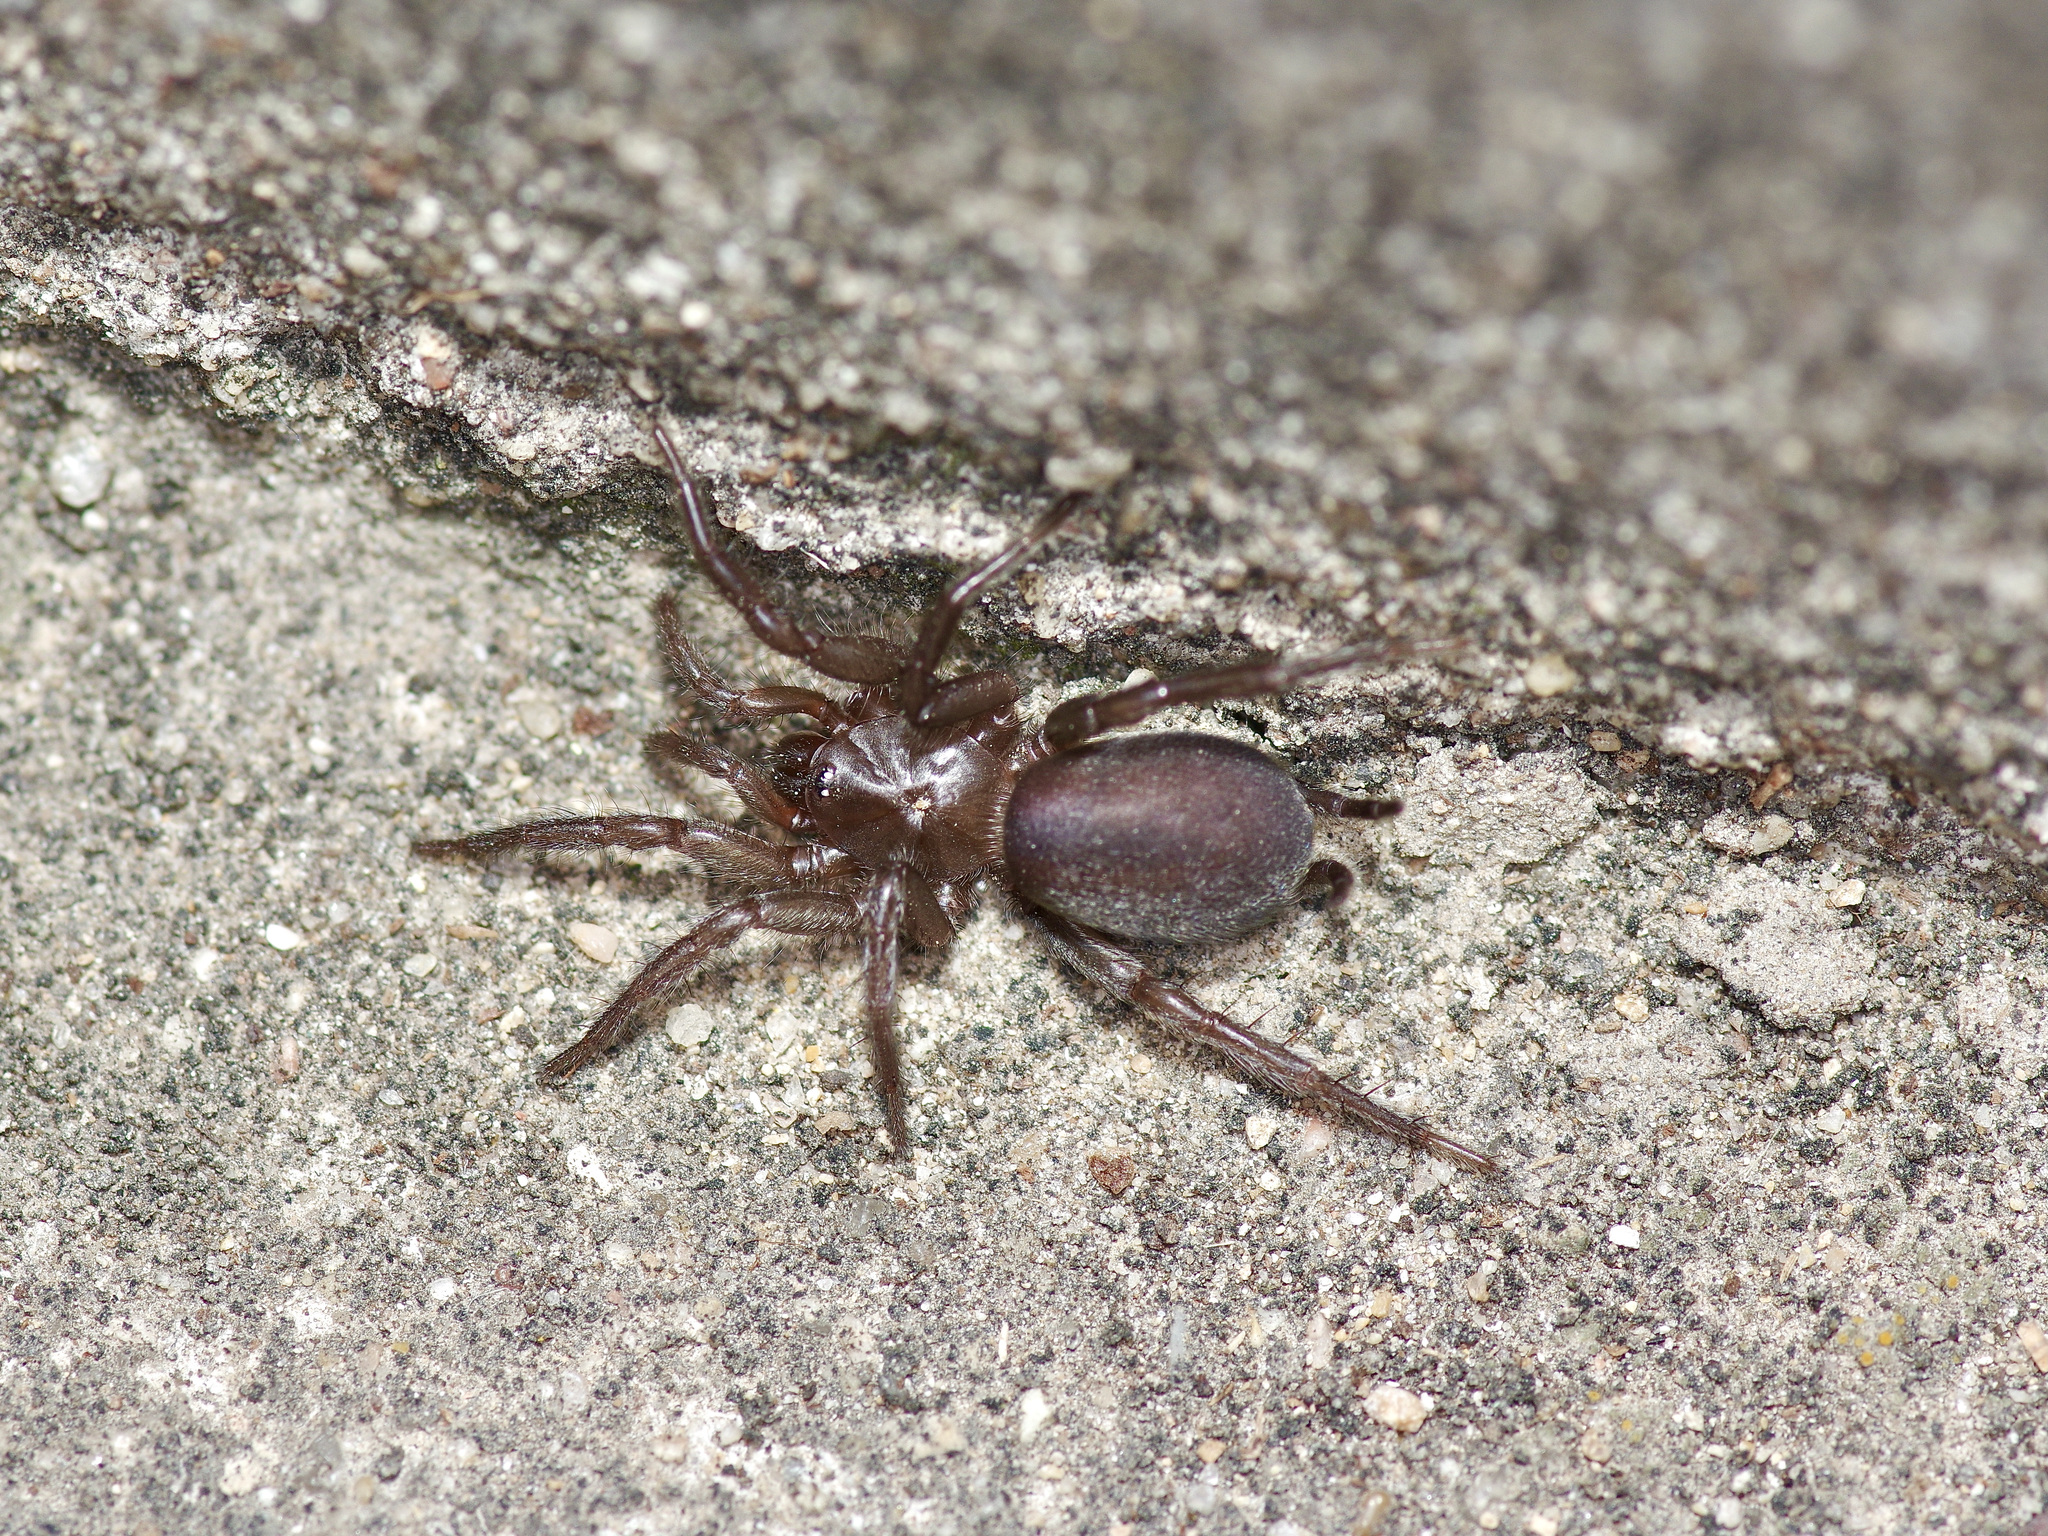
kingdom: Animalia
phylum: Arthropoda
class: Arachnida
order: Araneae
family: Euagridae
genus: Euagrus
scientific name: Euagrus chisoseus
